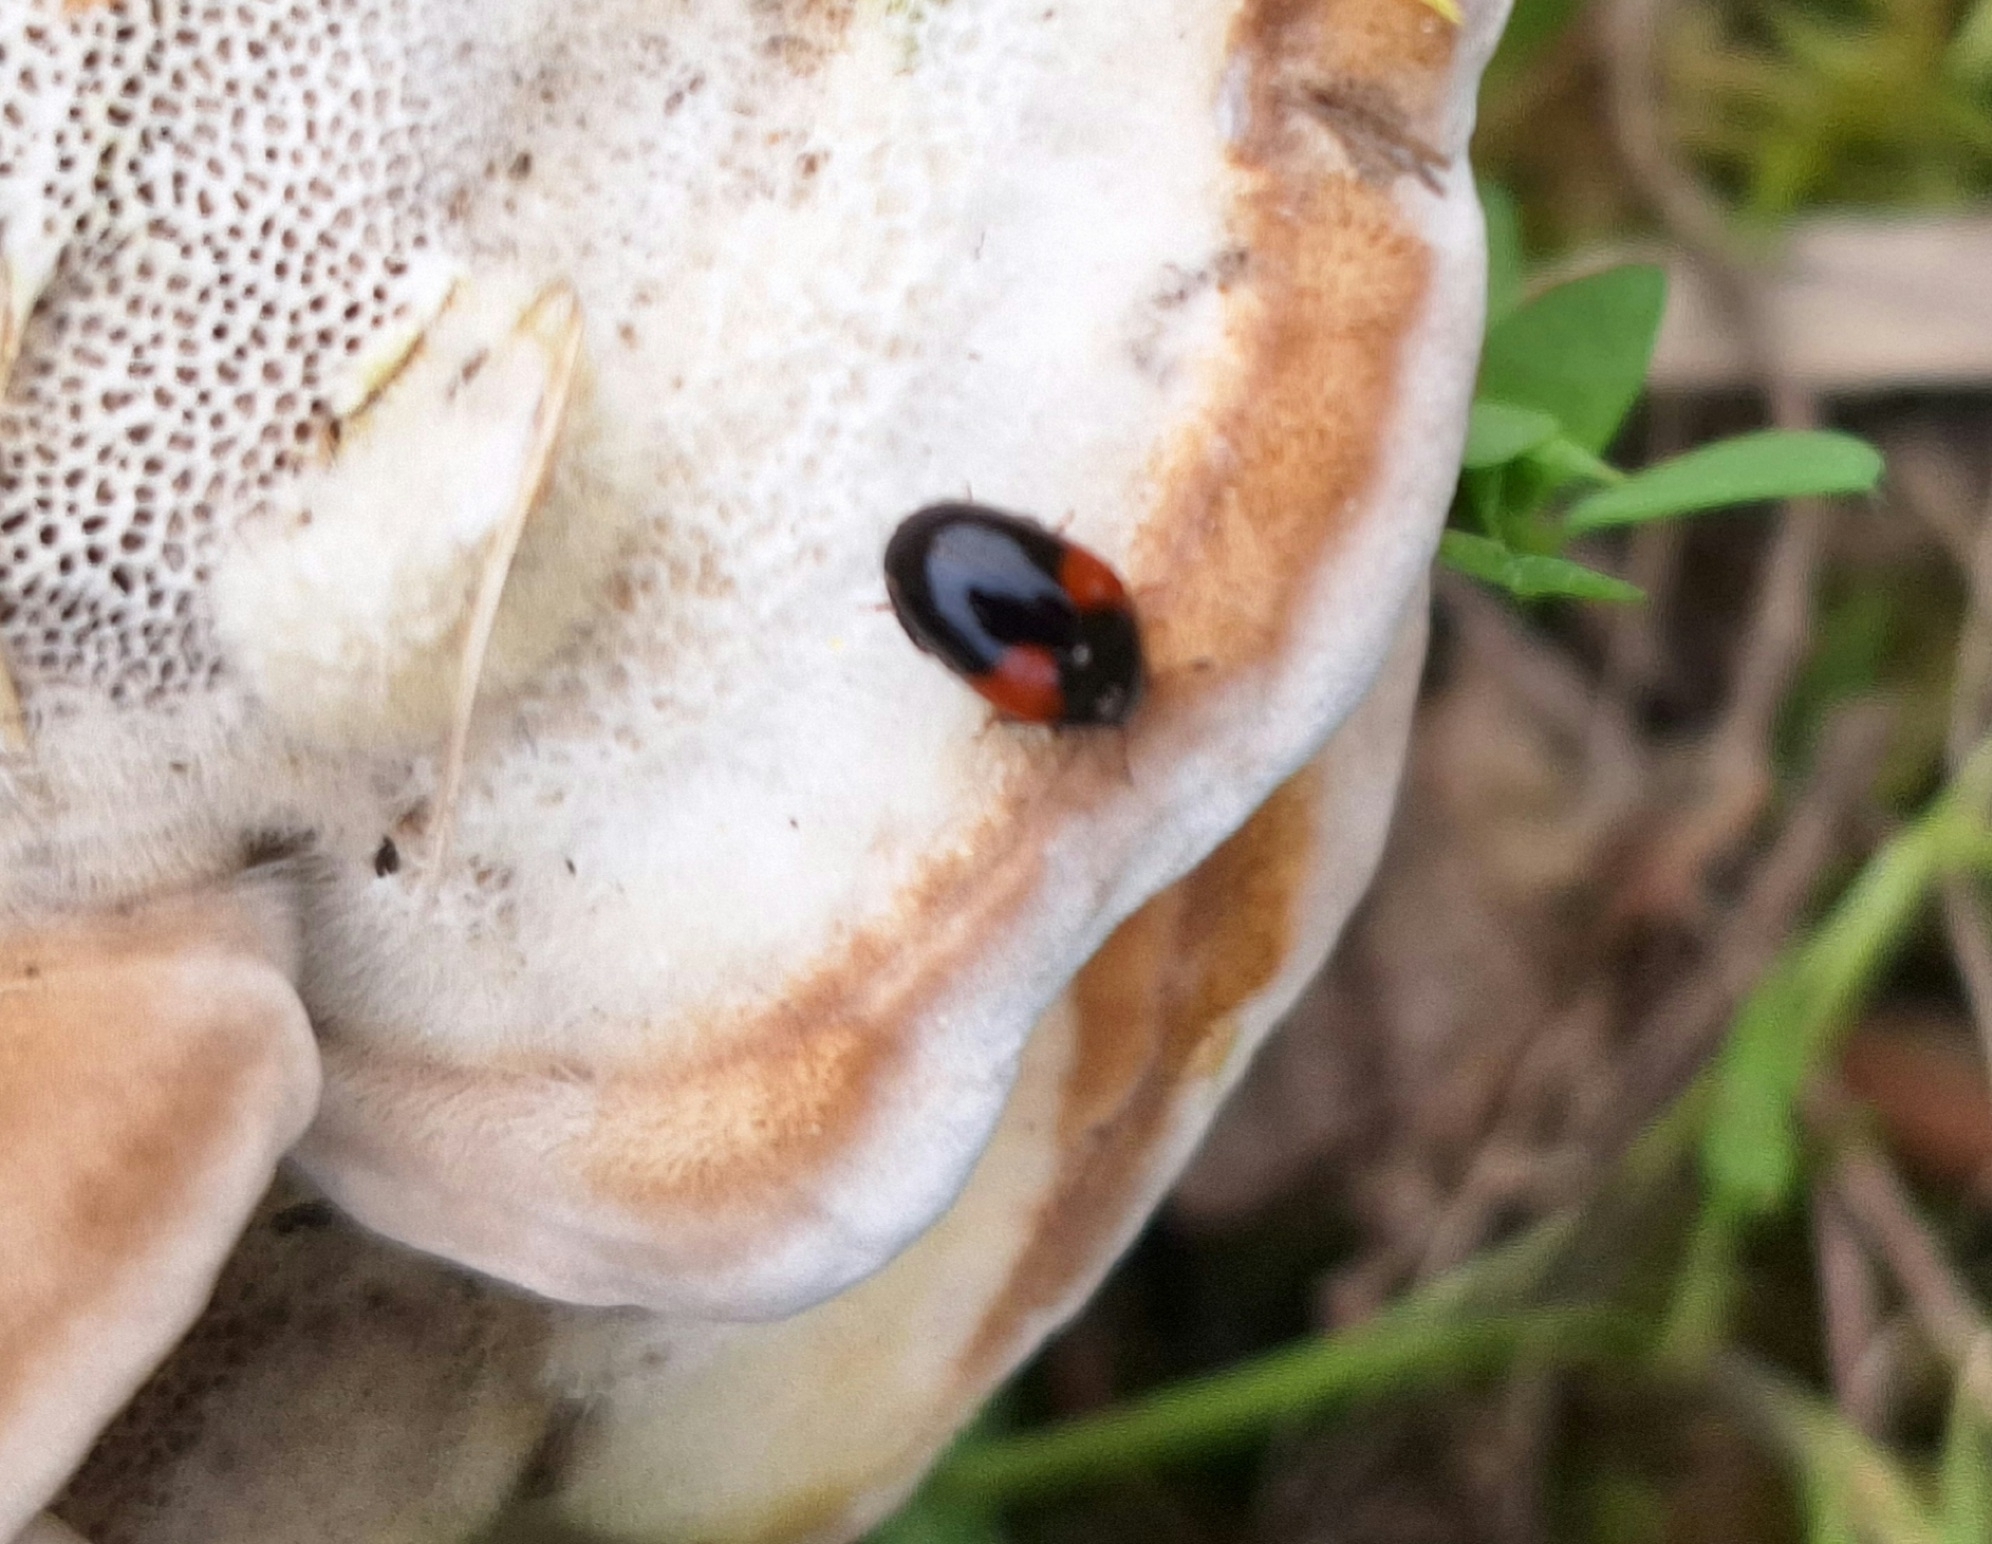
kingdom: Animalia
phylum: Arthropoda
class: Insecta
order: Coleoptera
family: Erotylidae
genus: Tritoma
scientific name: Tritoma bipustulata
